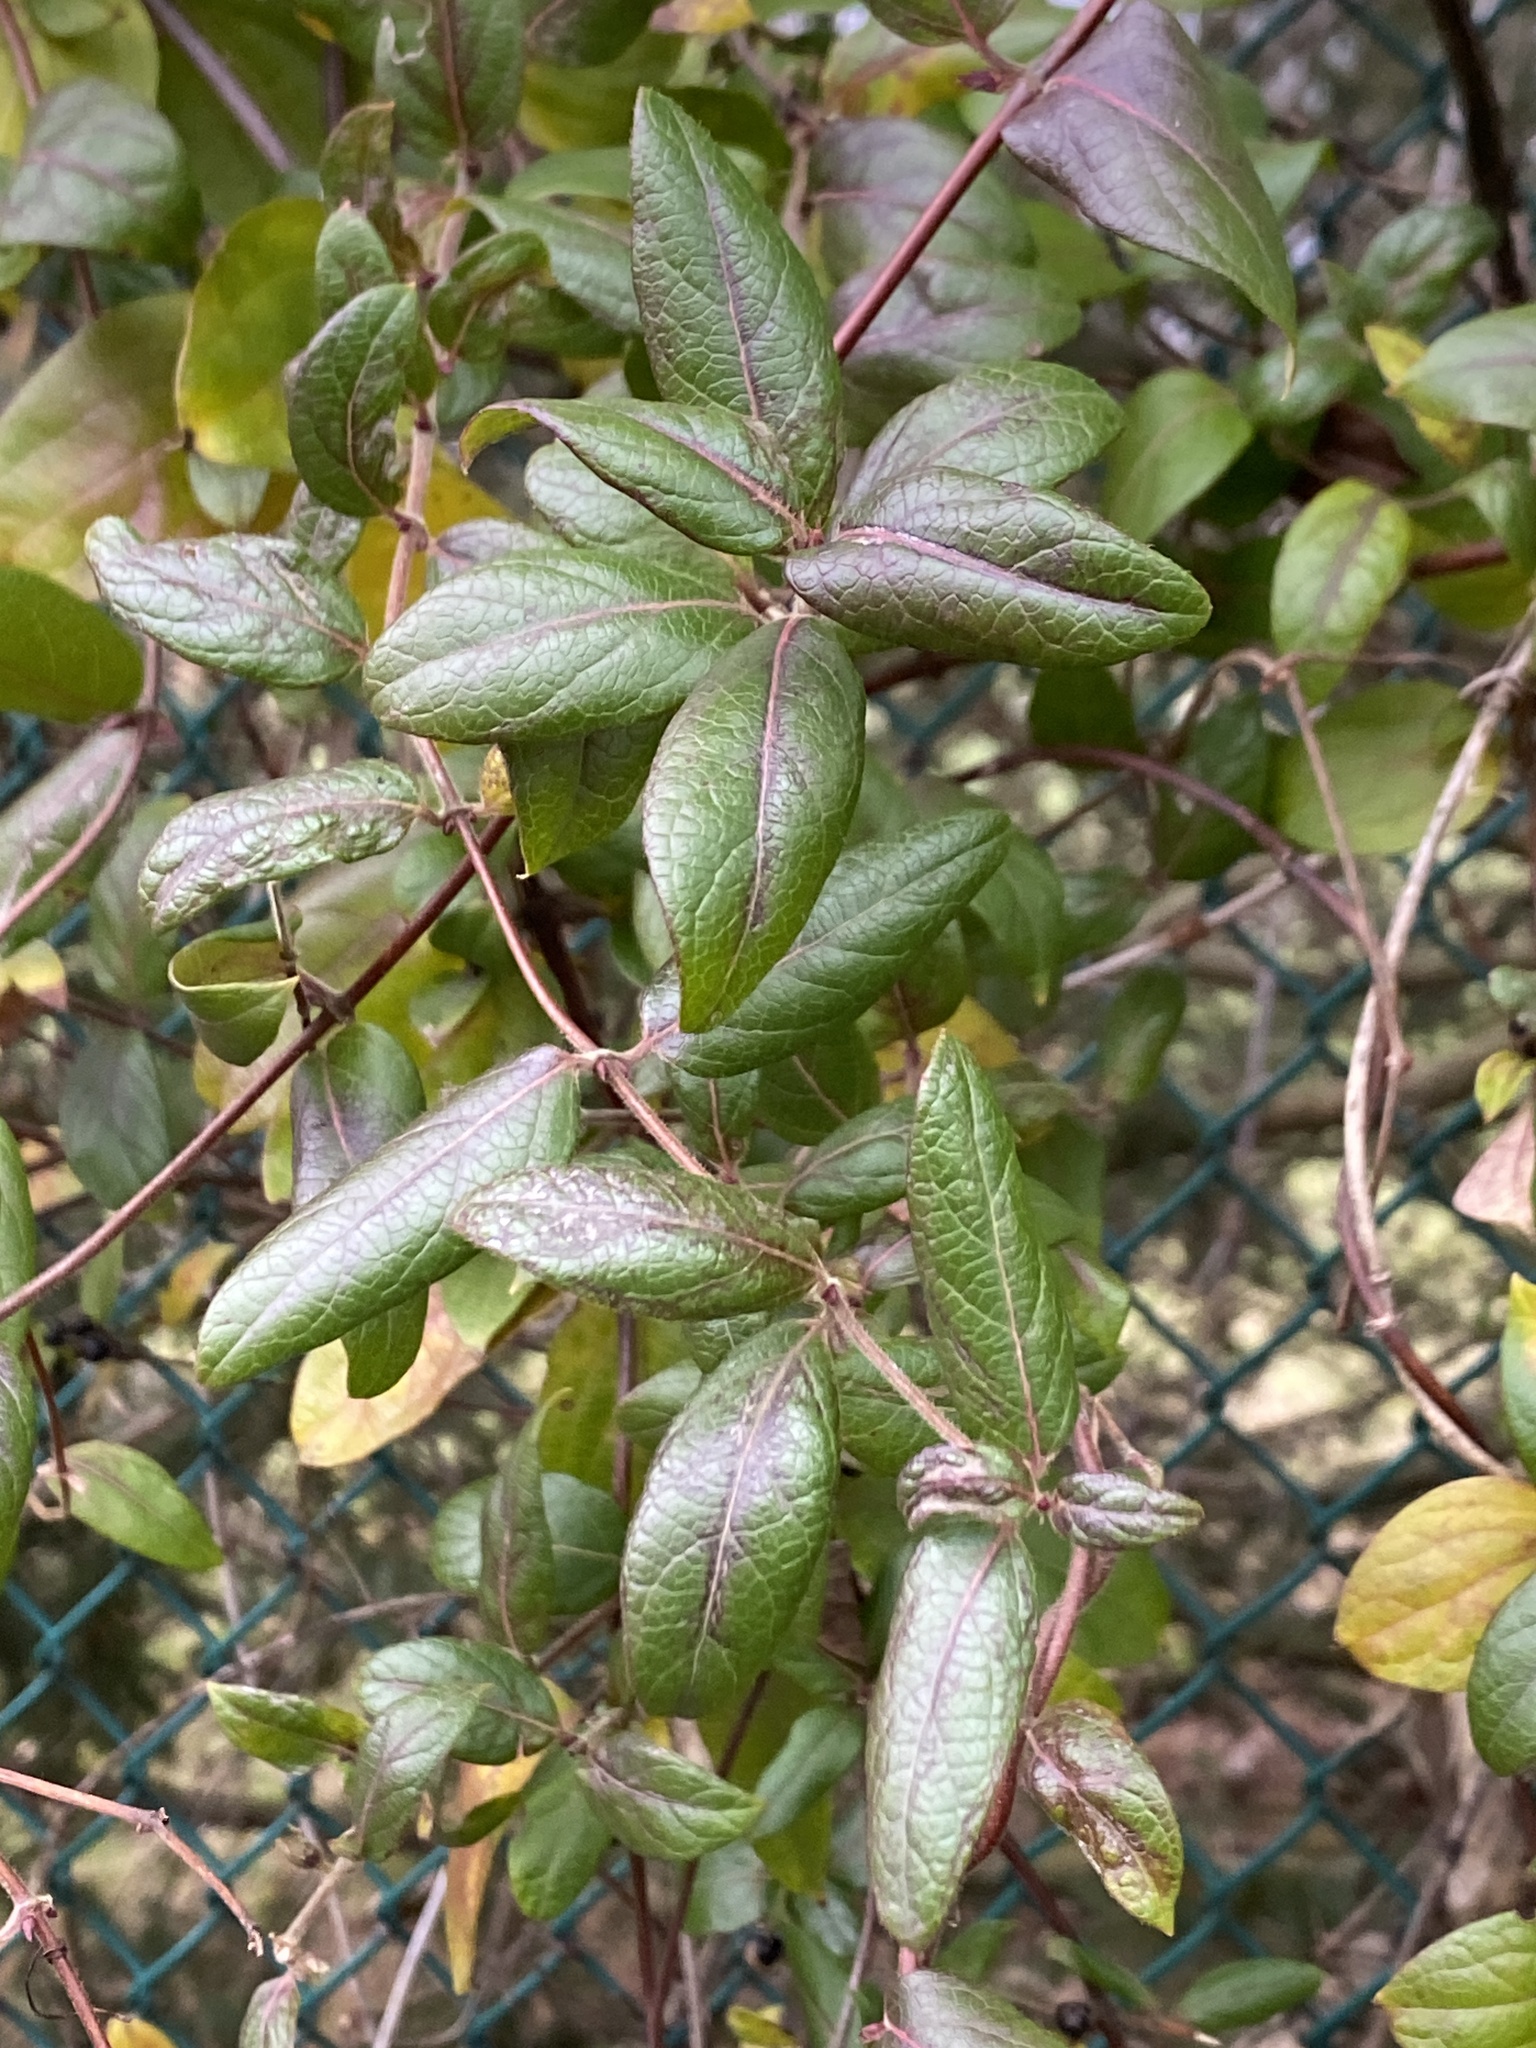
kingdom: Plantae
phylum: Tracheophyta
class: Magnoliopsida
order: Dipsacales
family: Caprifoliaceae
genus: Lonicera
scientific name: Lonicera japonica
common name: Japanese honeysuckle
